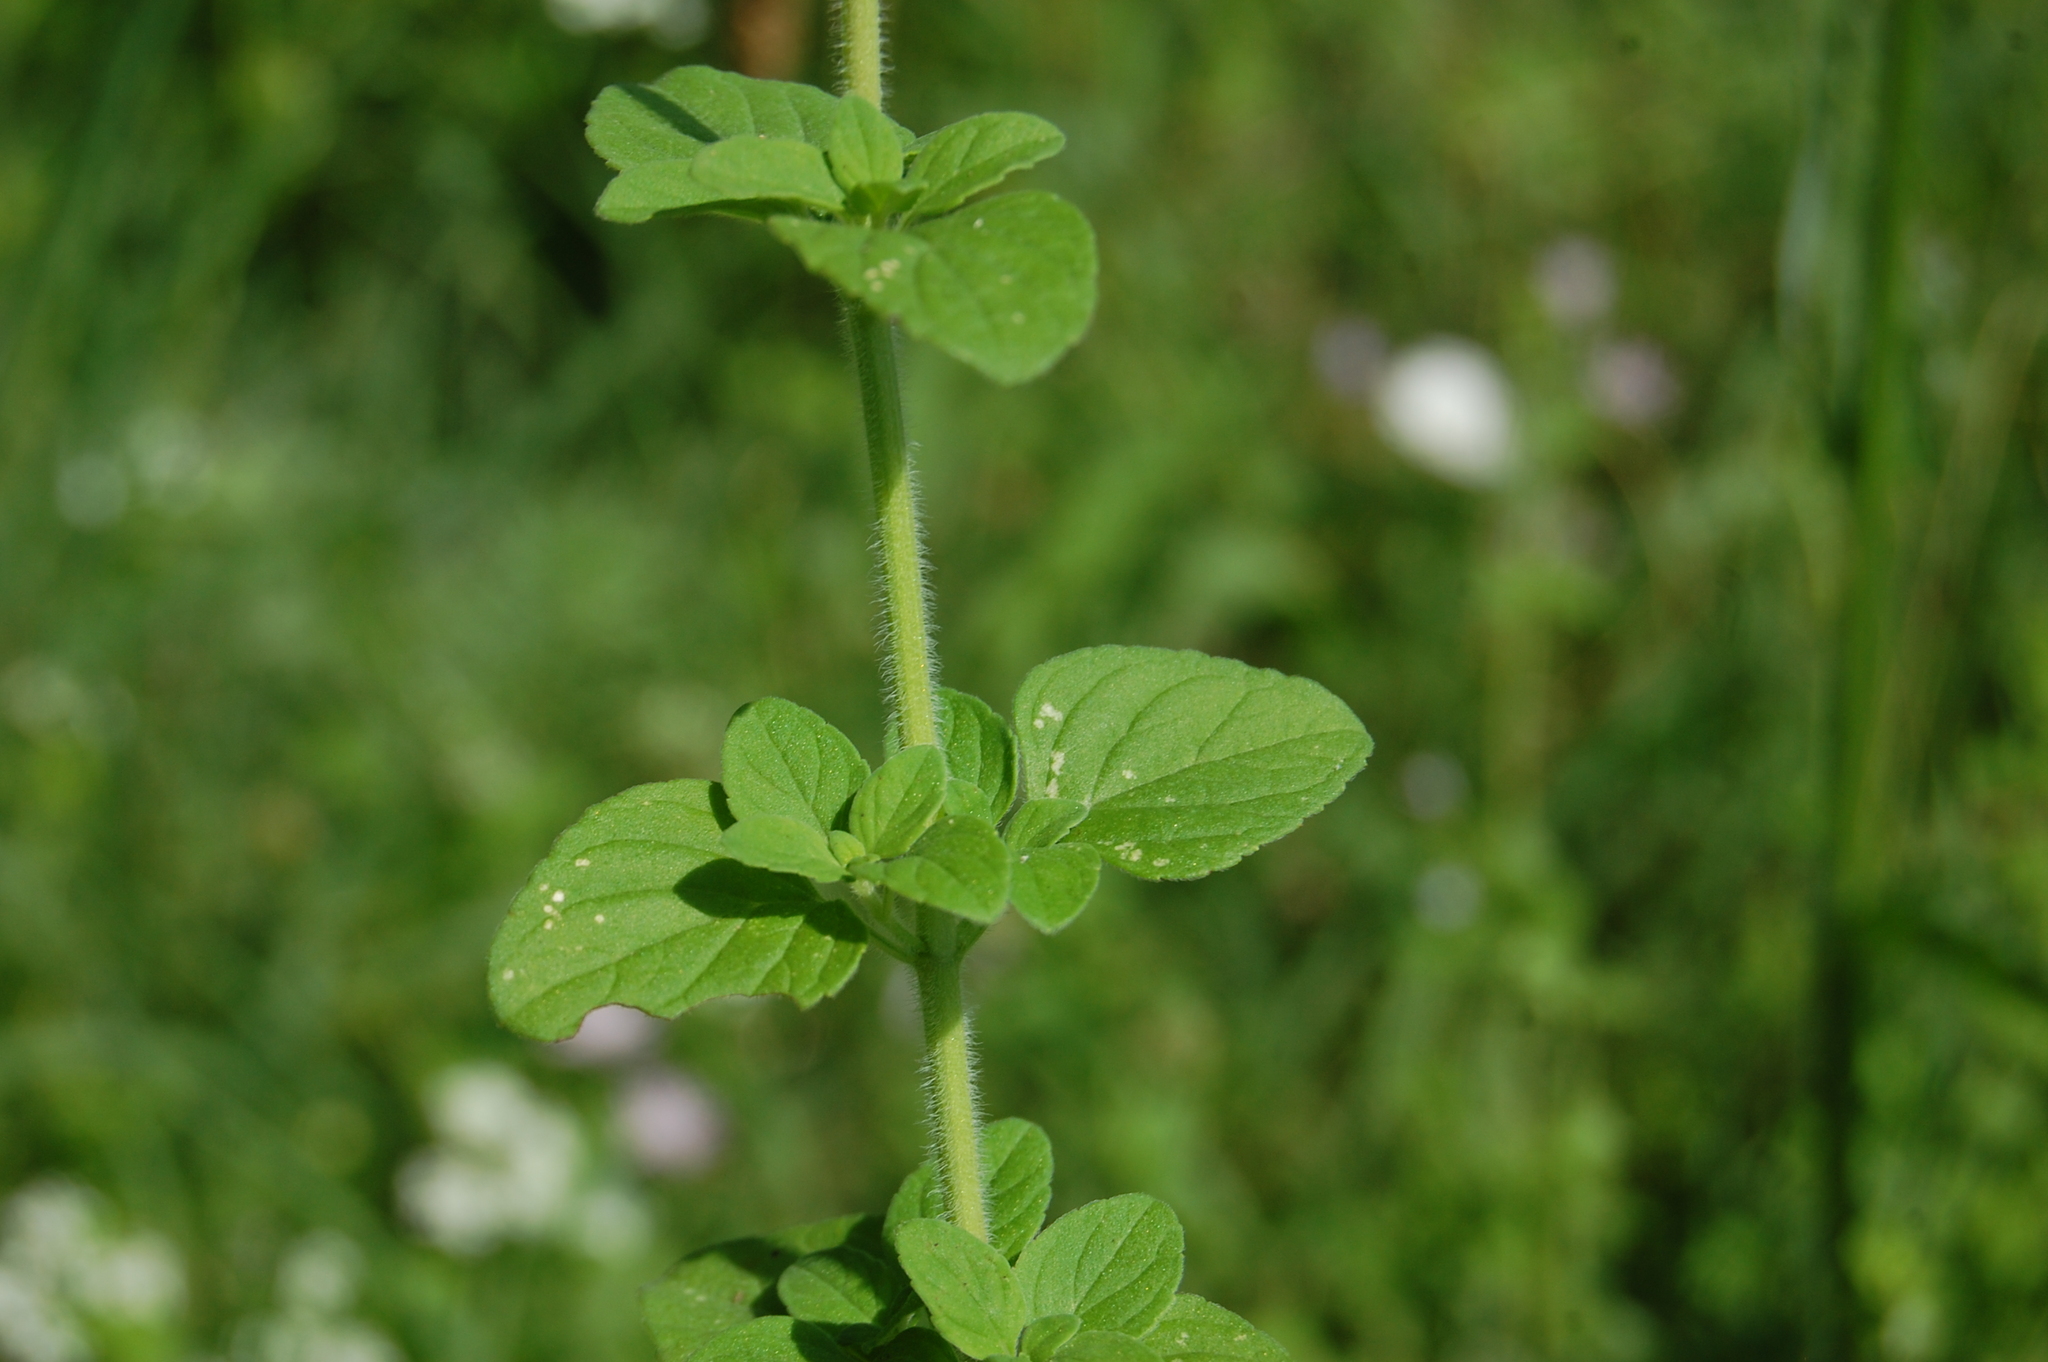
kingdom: Plantae
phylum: Tracheophyta
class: Magnoliopsida
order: Lamiales
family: Lamiaceae
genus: Clinopodium
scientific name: Clinopodium nepeta
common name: Lesser calamint
